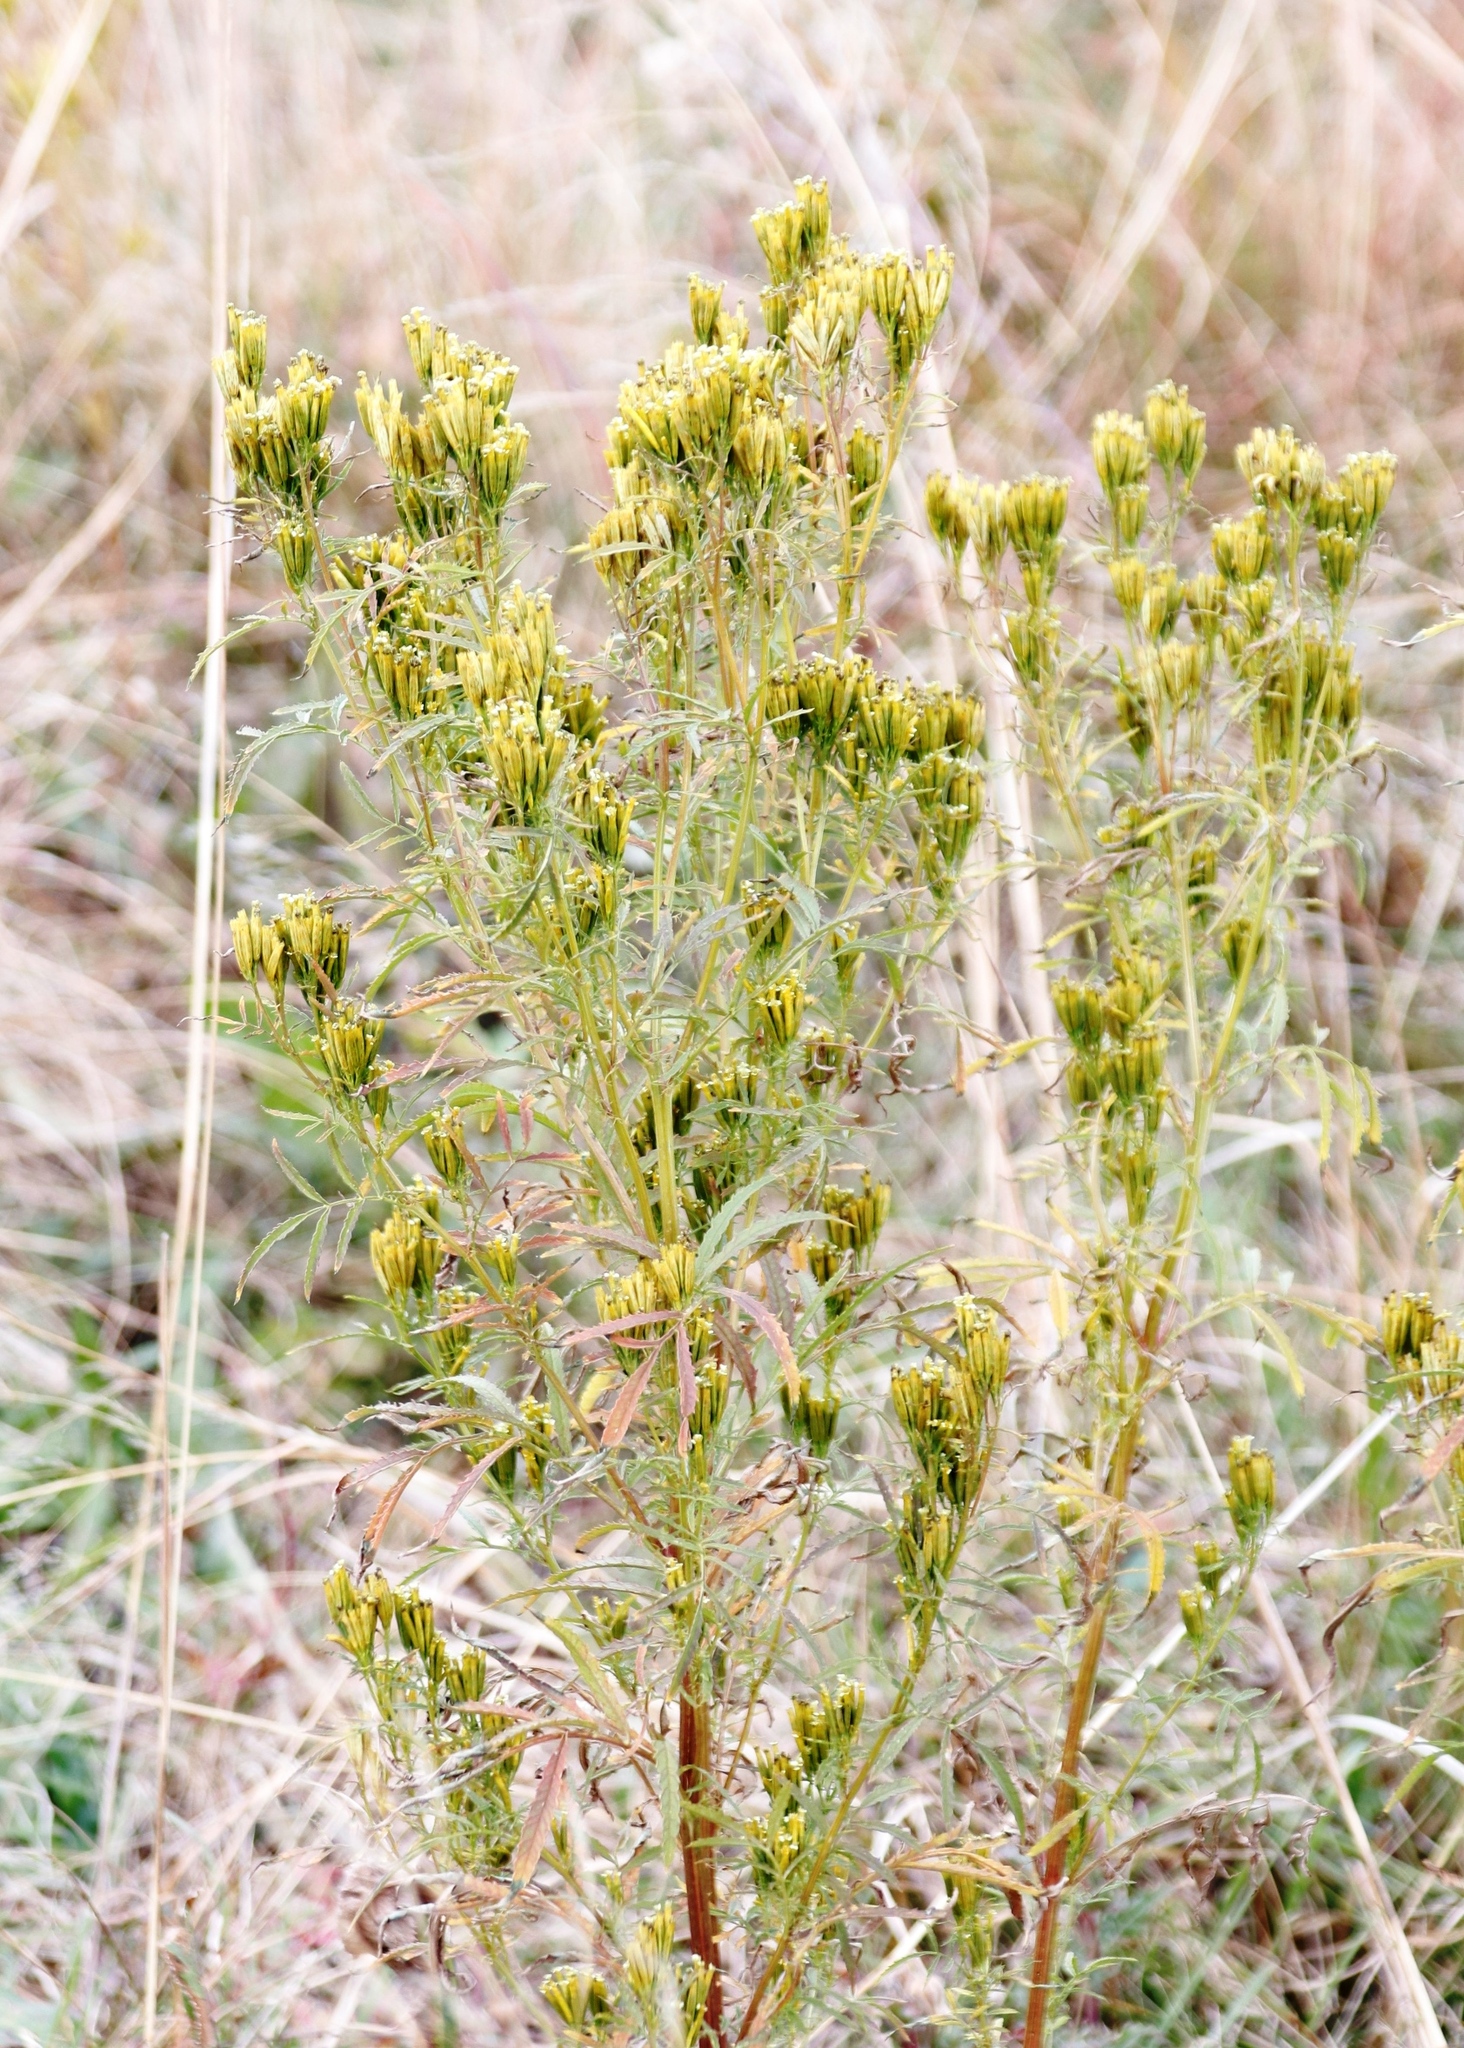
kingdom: Plantae
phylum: Tracheophyta
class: Magnoliopsida
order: Asterales
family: Asteraceae
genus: Tagetes
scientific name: Tagetes minuta
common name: Muster john henry
